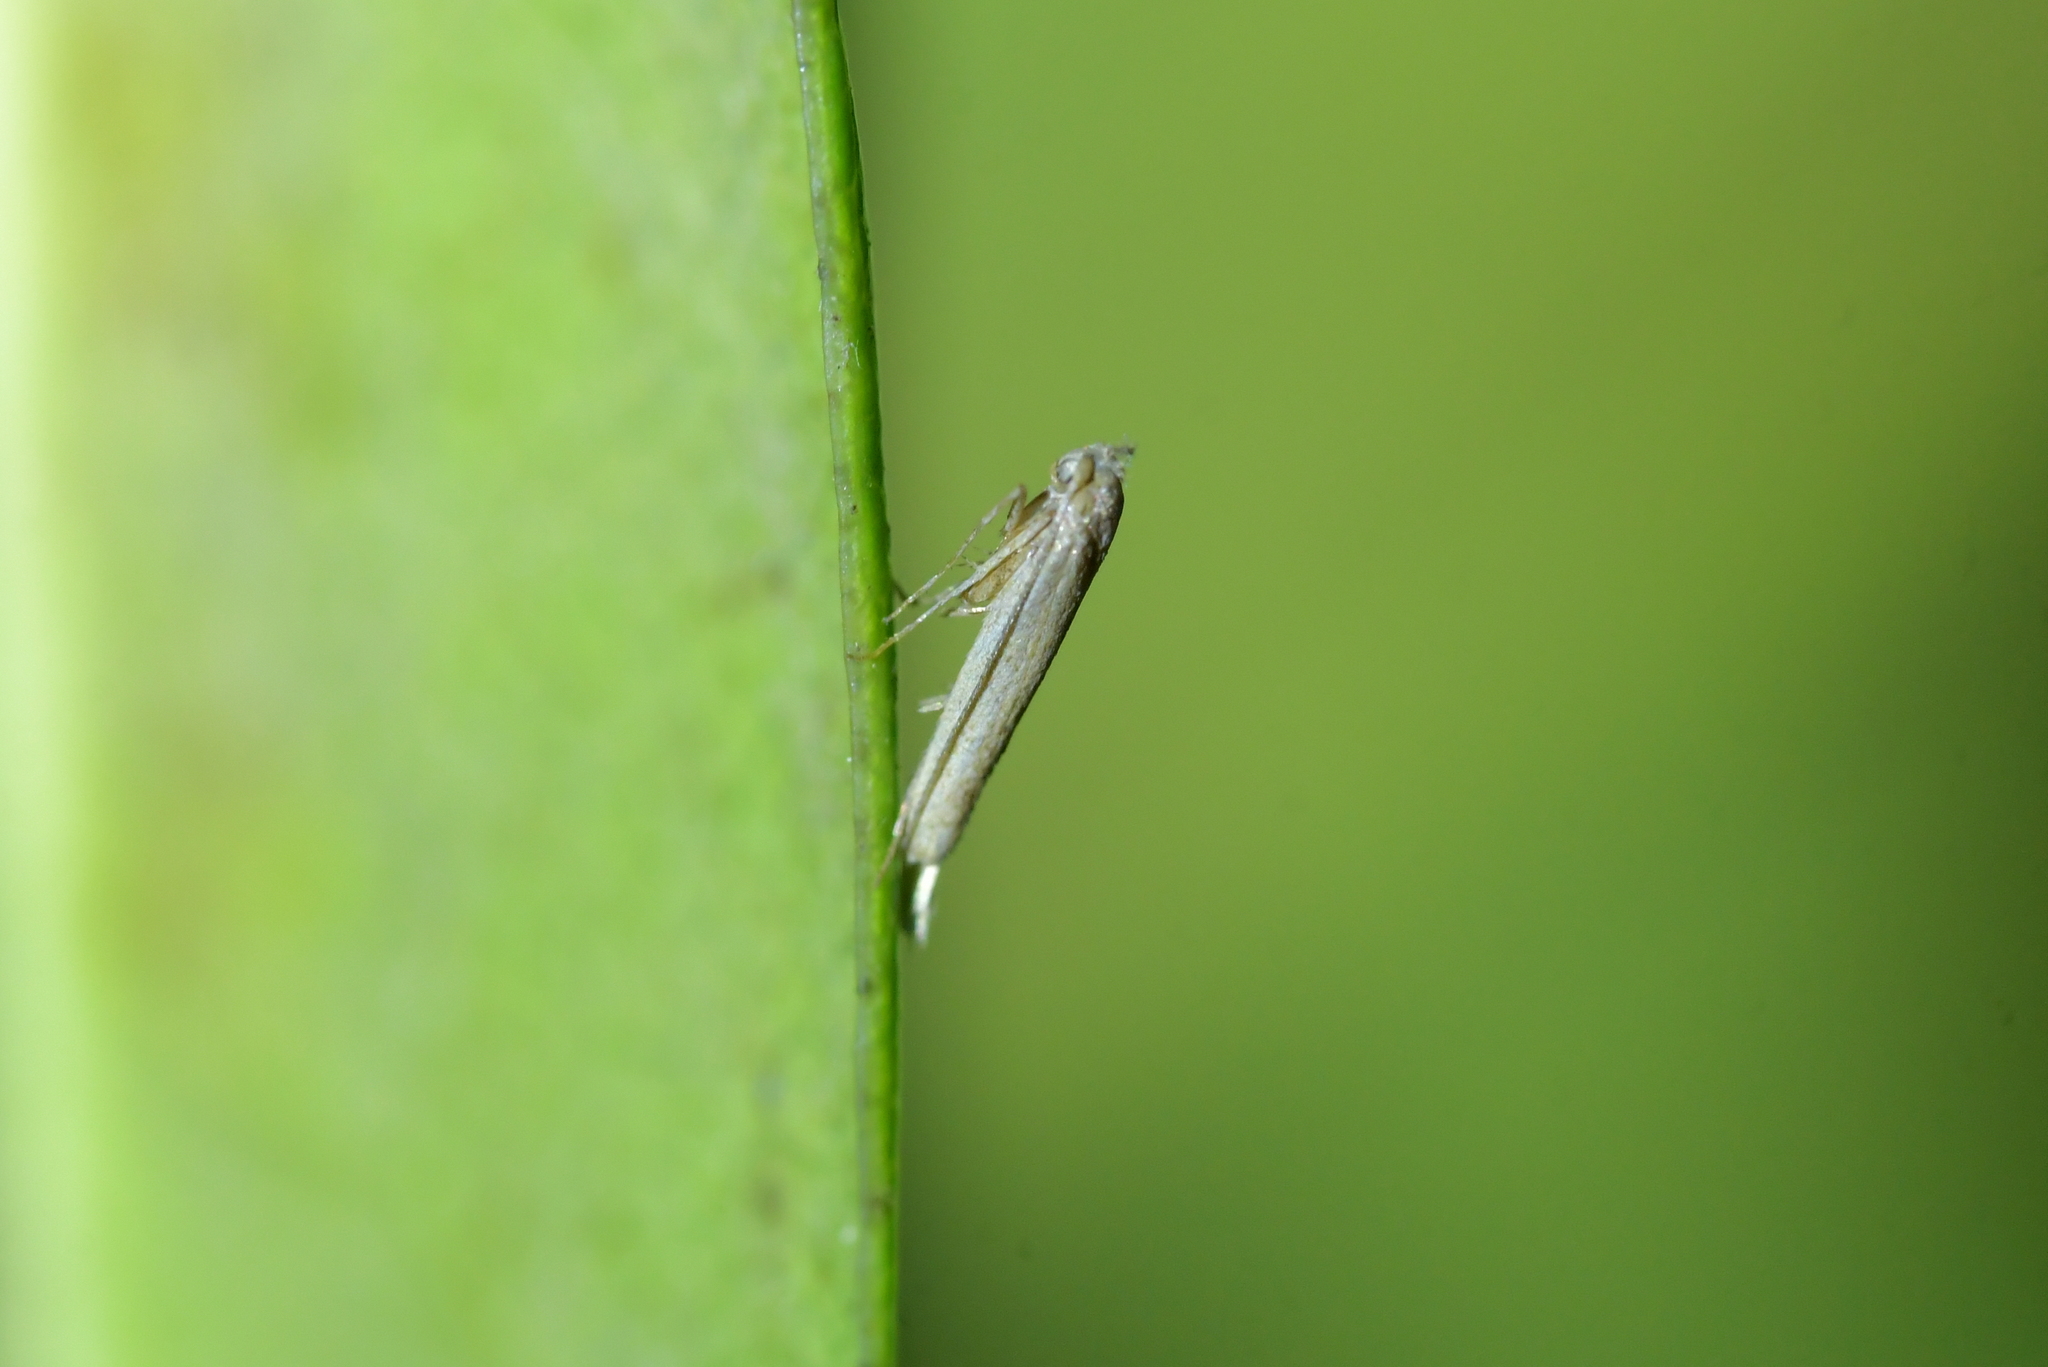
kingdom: Animalia
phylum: Arthropoda
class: Insecta
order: Lepidoptera
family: Bedelliidae
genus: Bedellia
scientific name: Bedellia somnulentella
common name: Morning-glory leafminer moth
